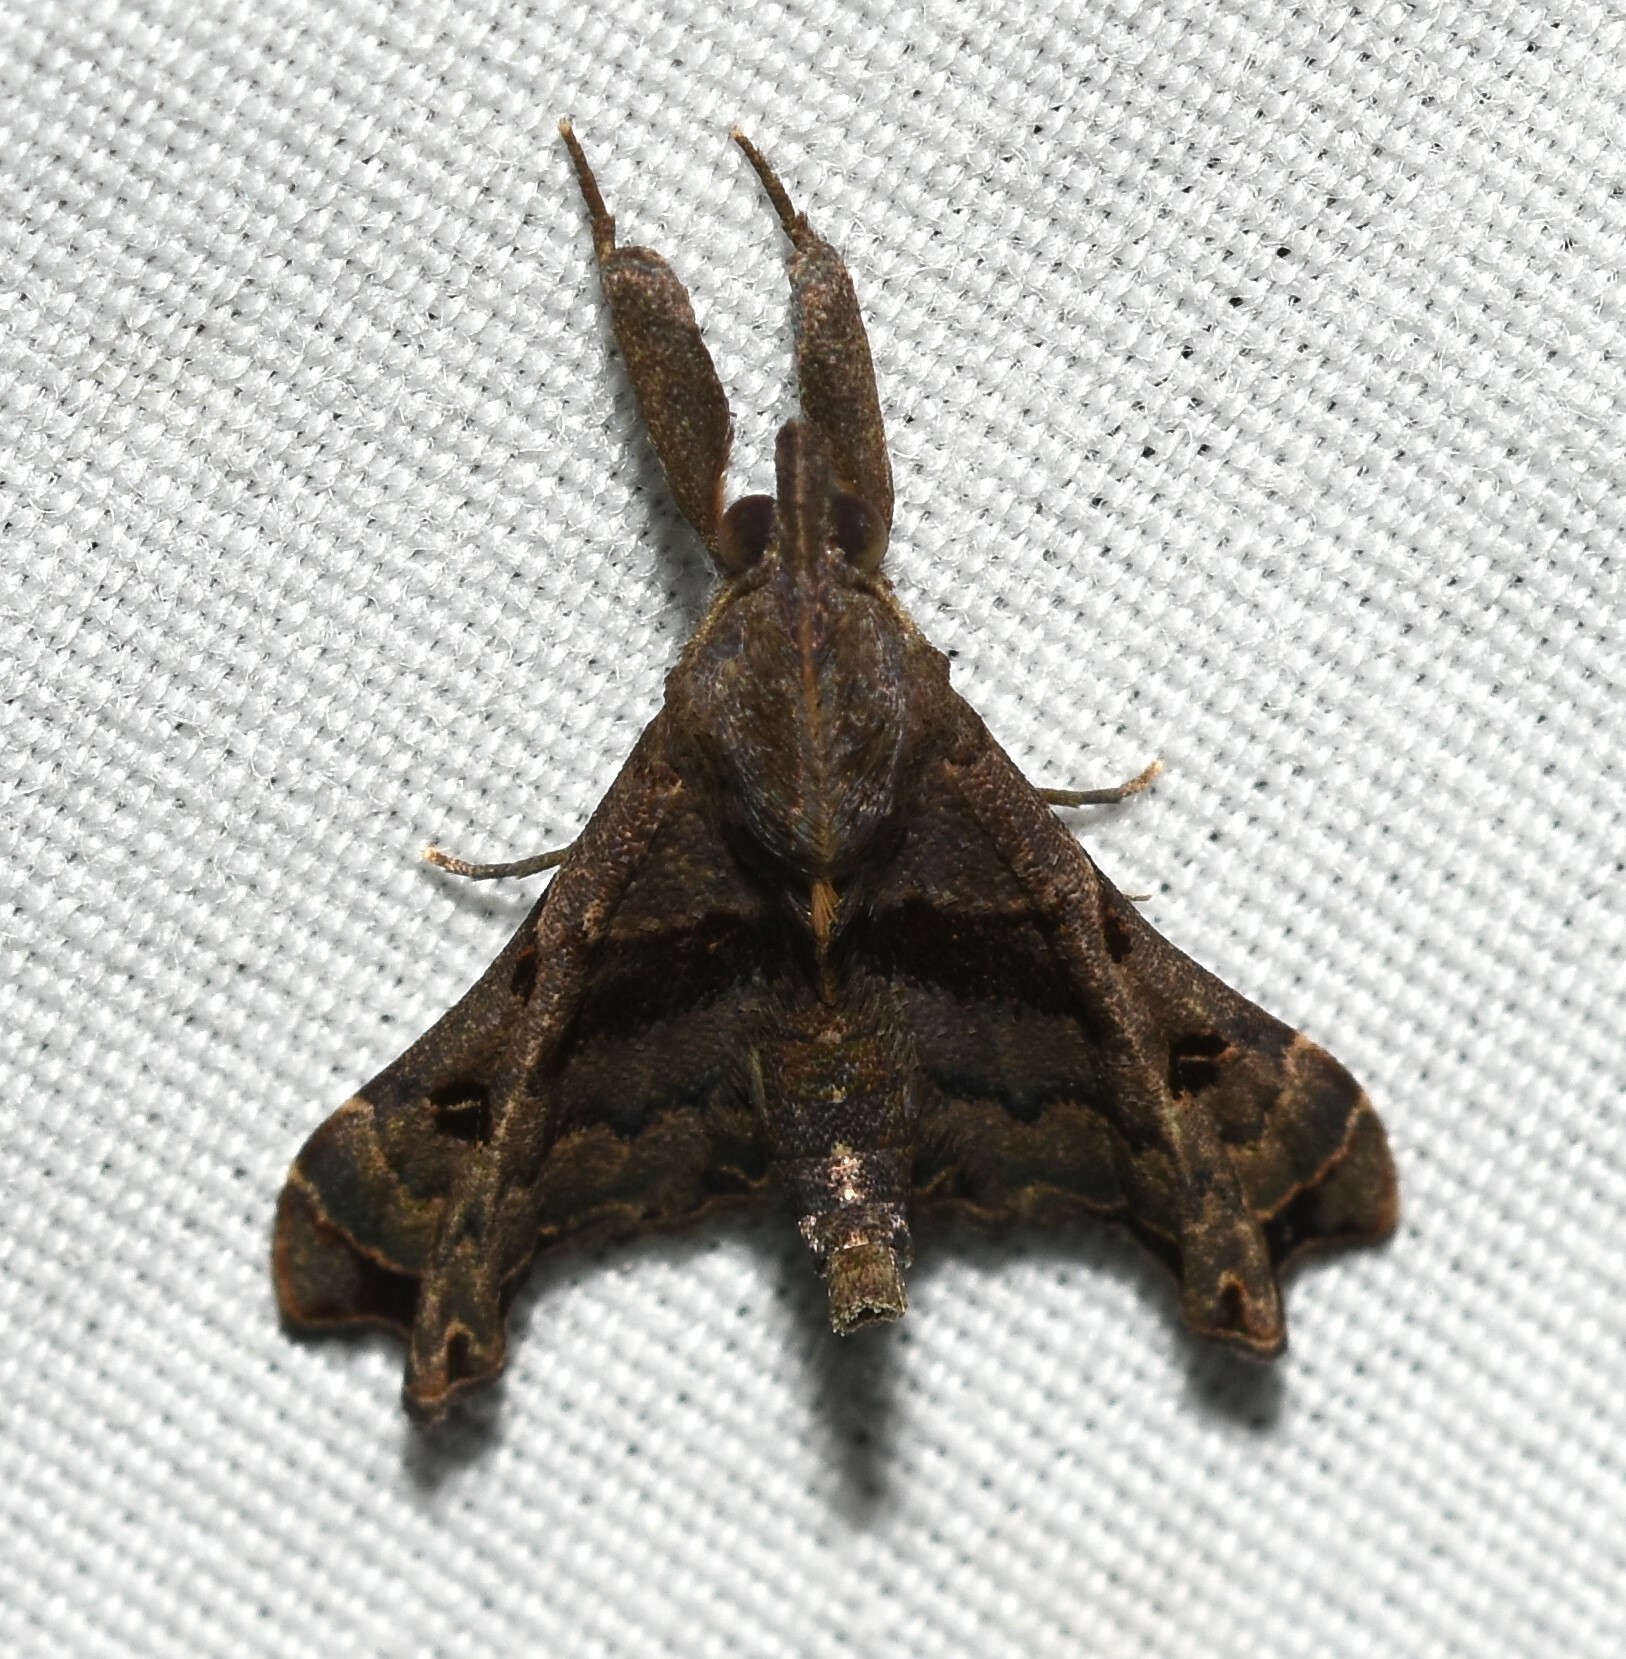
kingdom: Animalia
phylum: Arthropoda
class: Insecta
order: Lepidoptera
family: Erebidae
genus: Palthis
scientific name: Palthis asopialis
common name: Faint-spotted palthis moth
